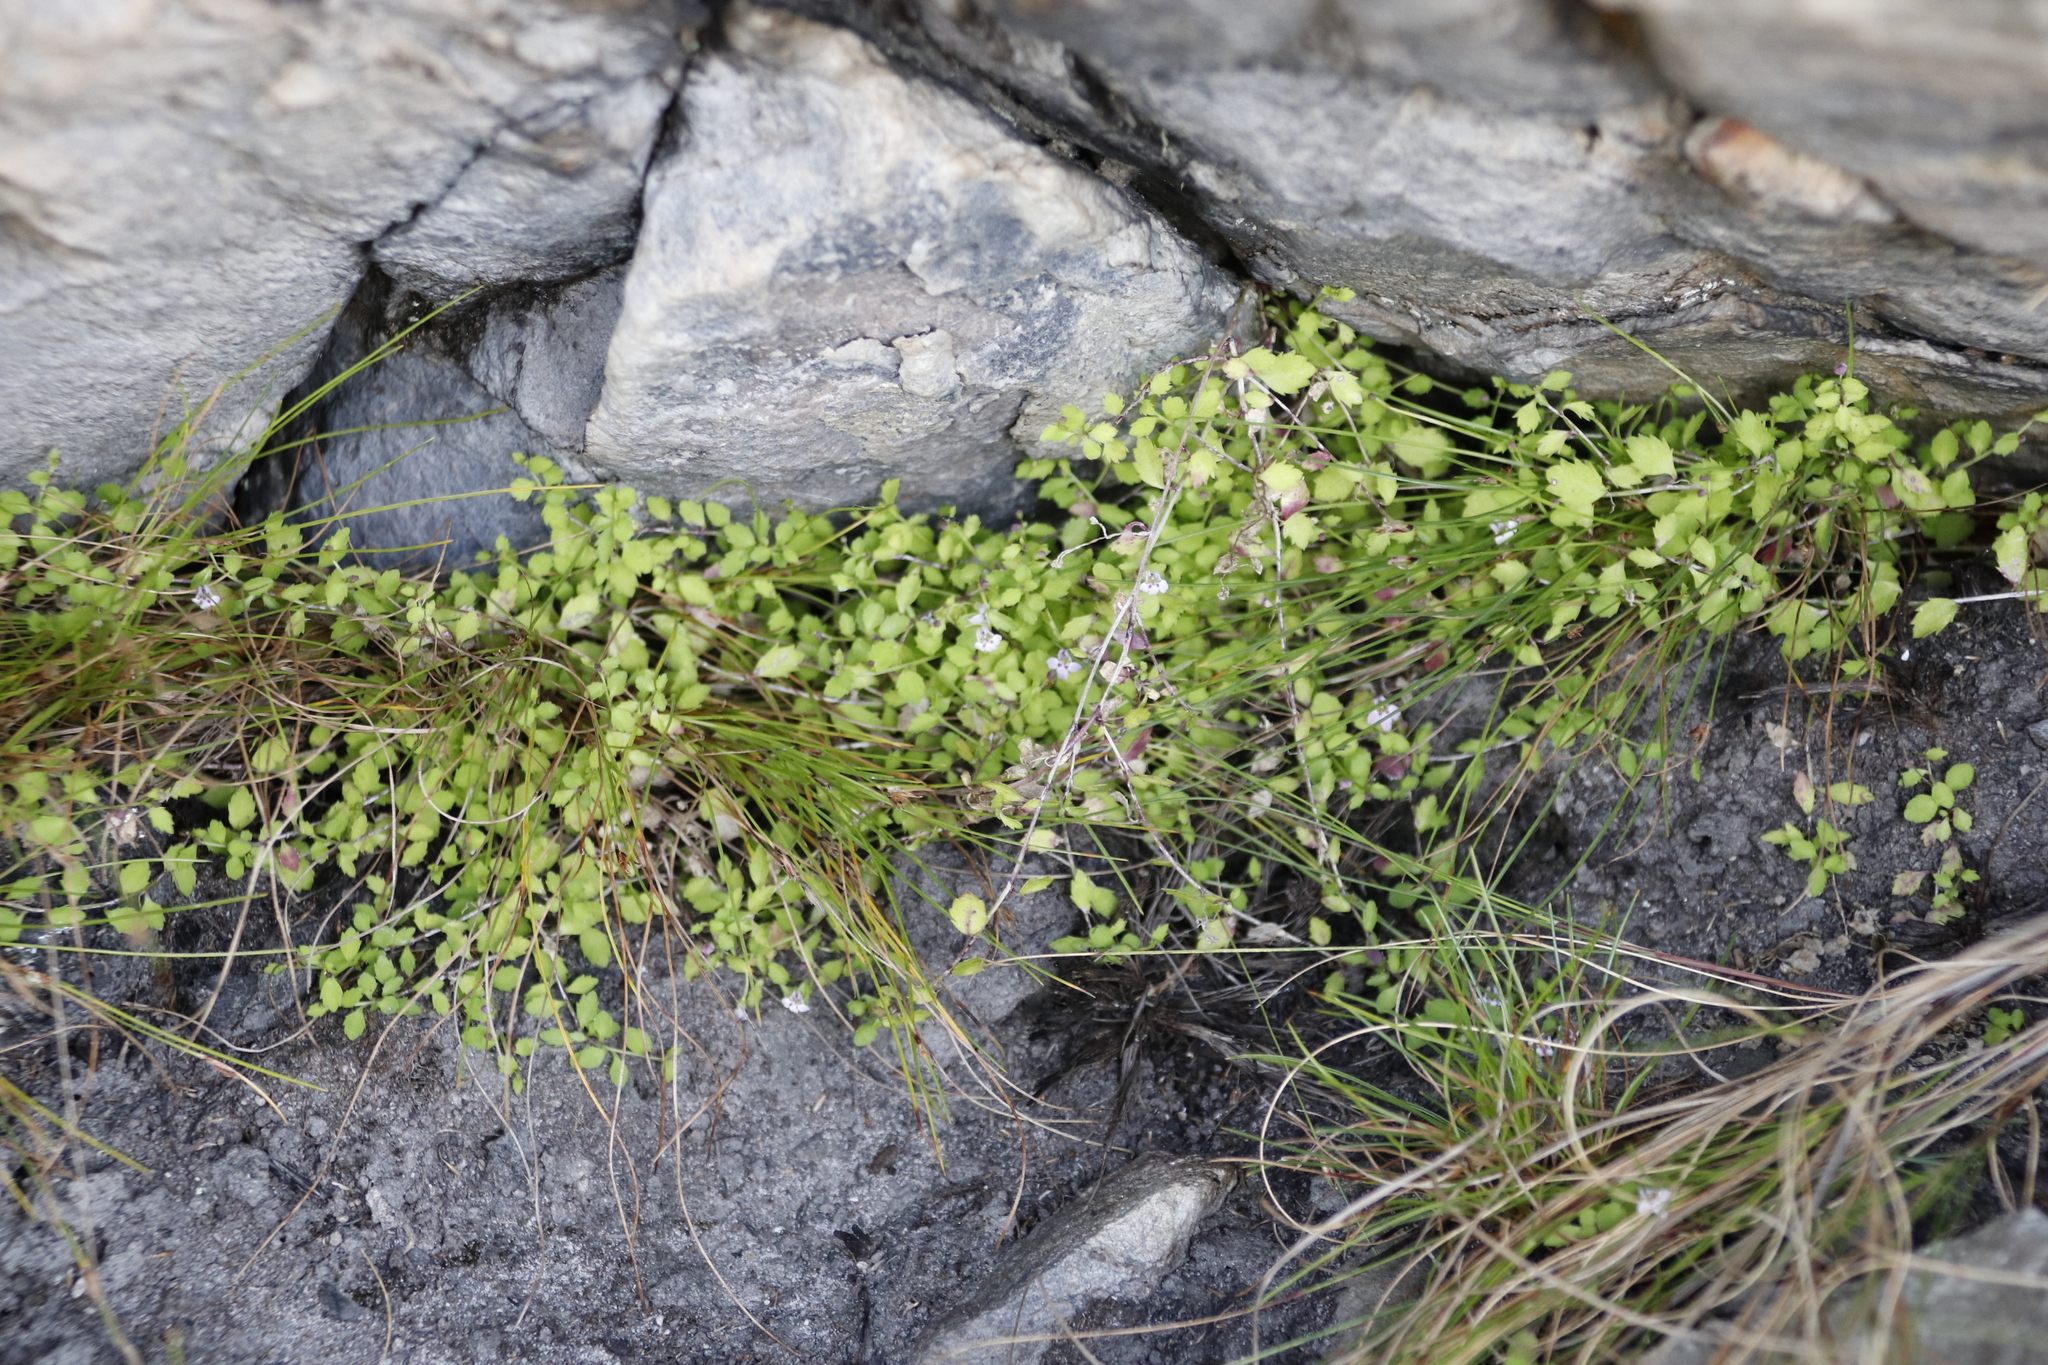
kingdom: Plantae
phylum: Tracheophyta
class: Magnoliopsida
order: Asterales
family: Campanulaceae
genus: Unigenes
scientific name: Unigenes humifusa
